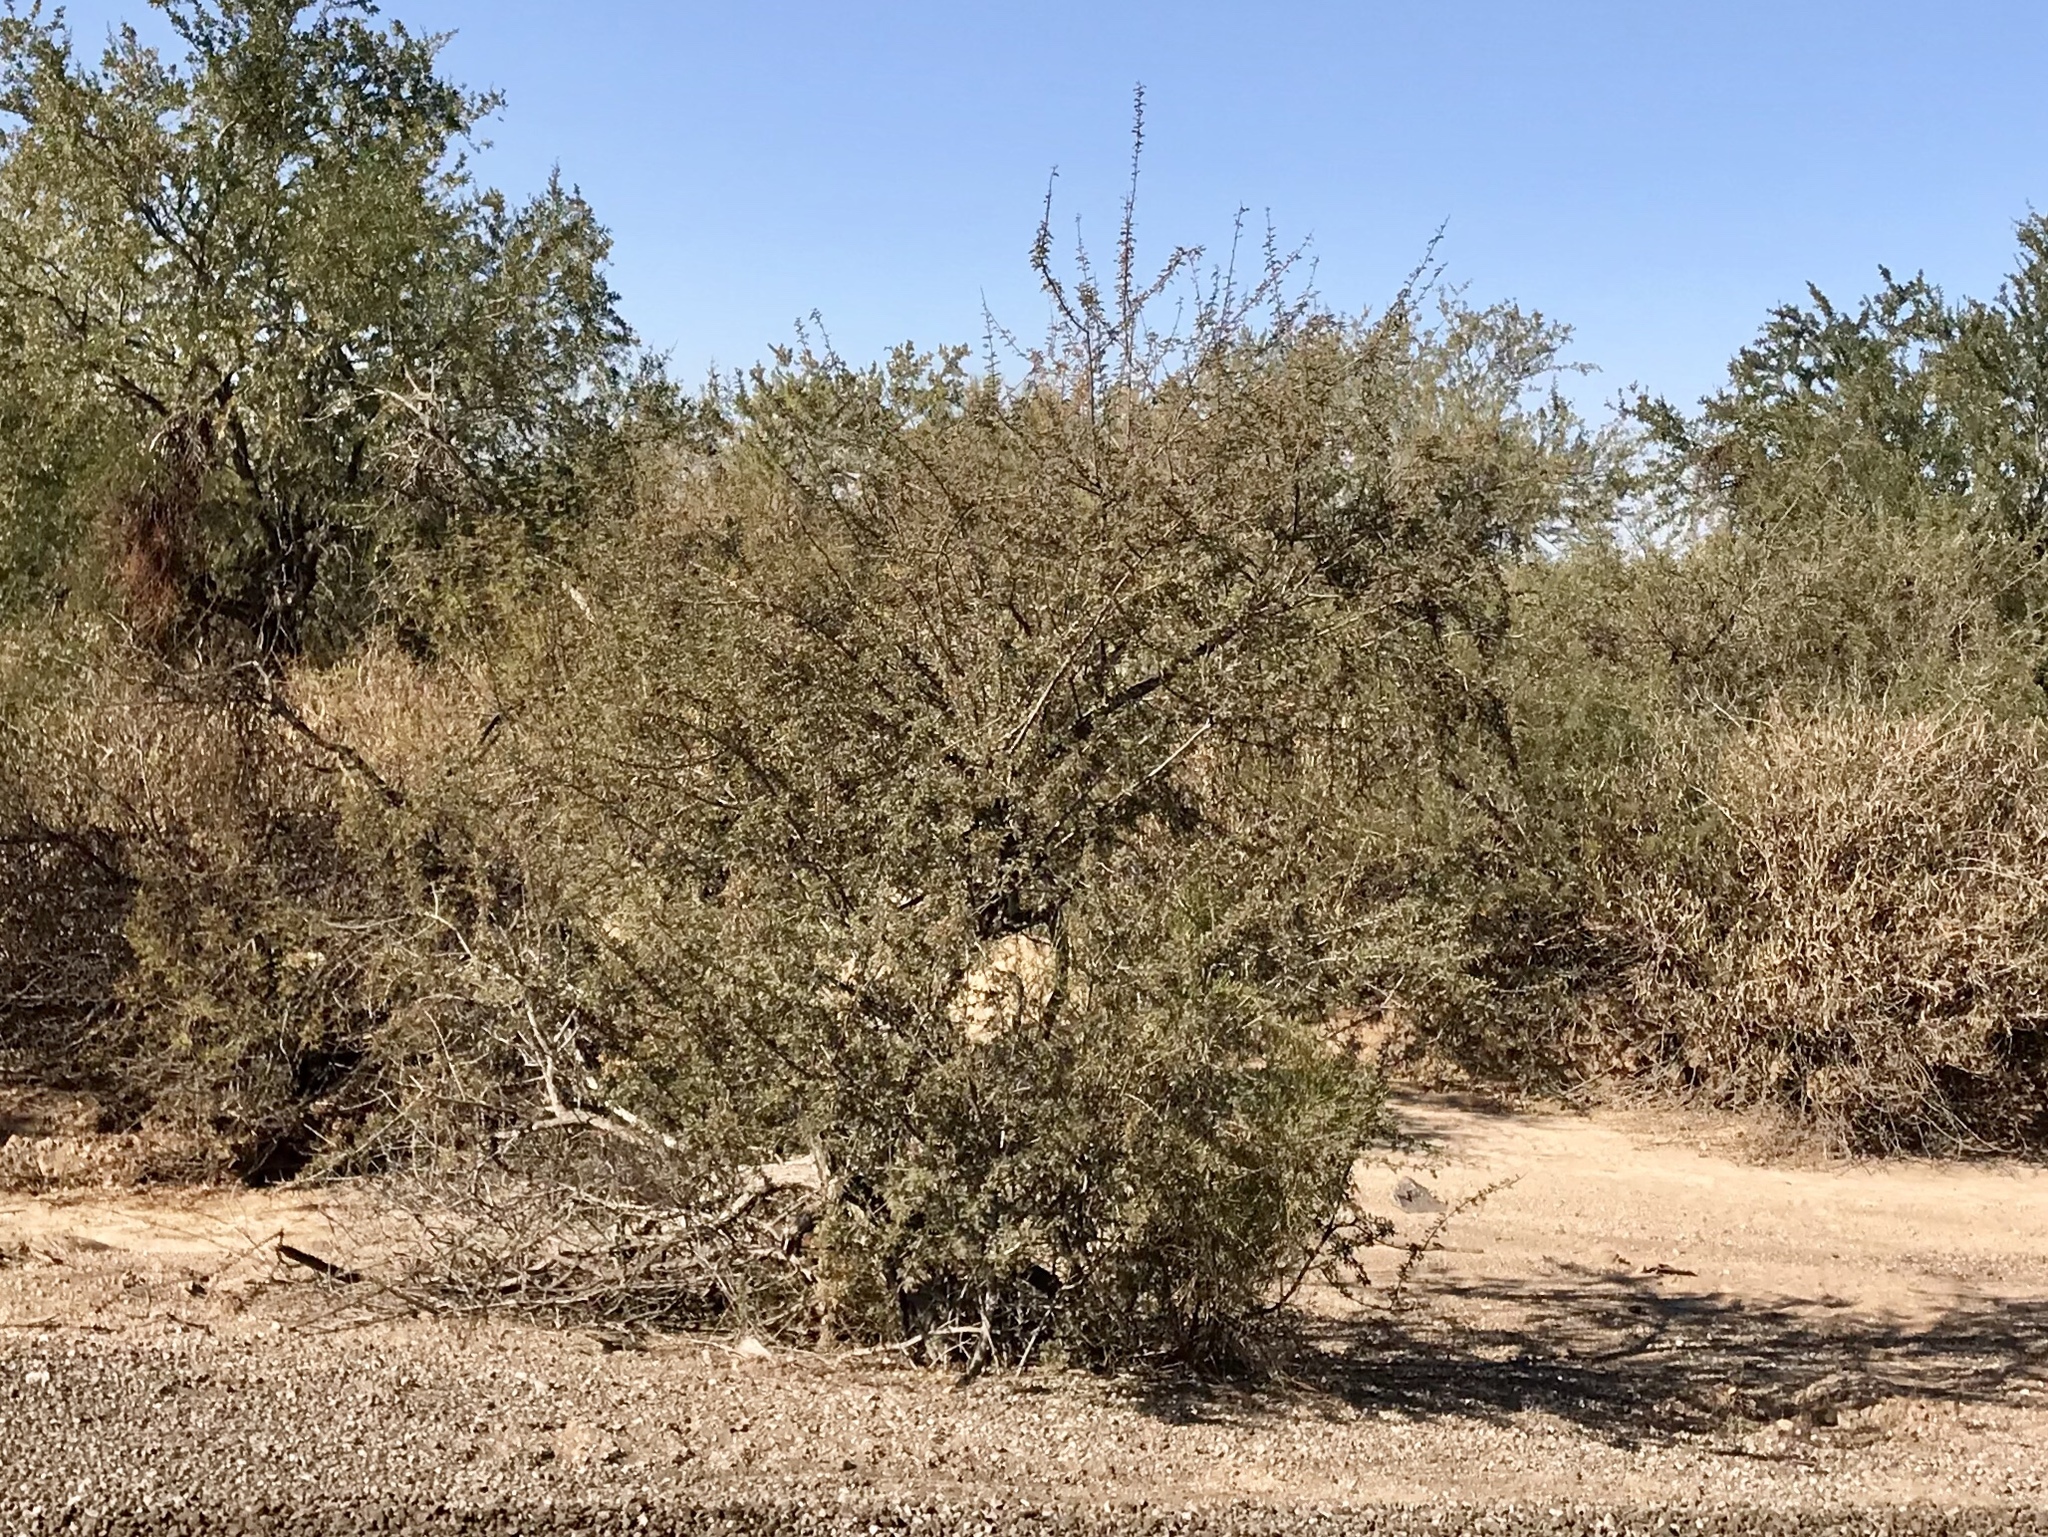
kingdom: Plantae
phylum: Tracheophyta
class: Magnoliopsida
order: Fabales
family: Fabaceae
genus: Olneya
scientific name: Olneya tesota
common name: Desert ironwood
